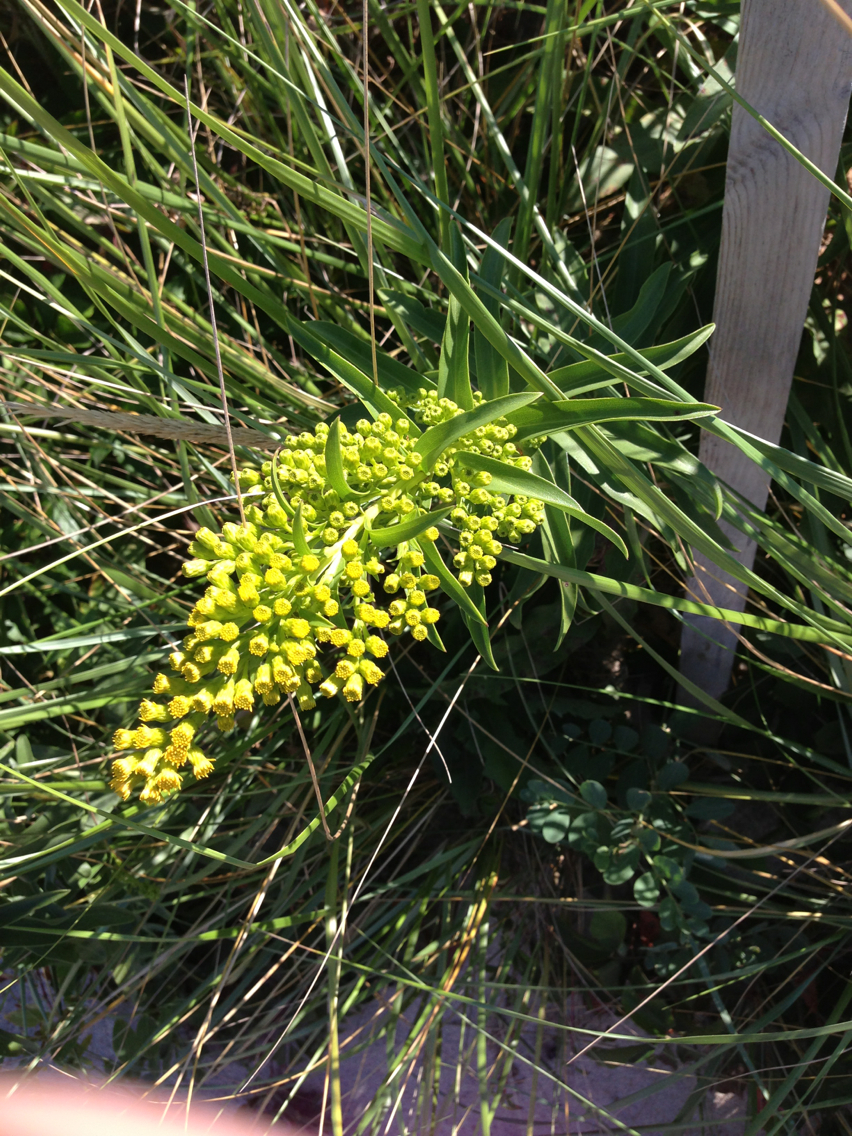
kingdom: Plantae
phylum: Tracheophyta
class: Magnoliopsida
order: Asterales
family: Asteraceae
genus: Solidago
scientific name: Solidago sempervirens
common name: Salt-marsh goldenrod
